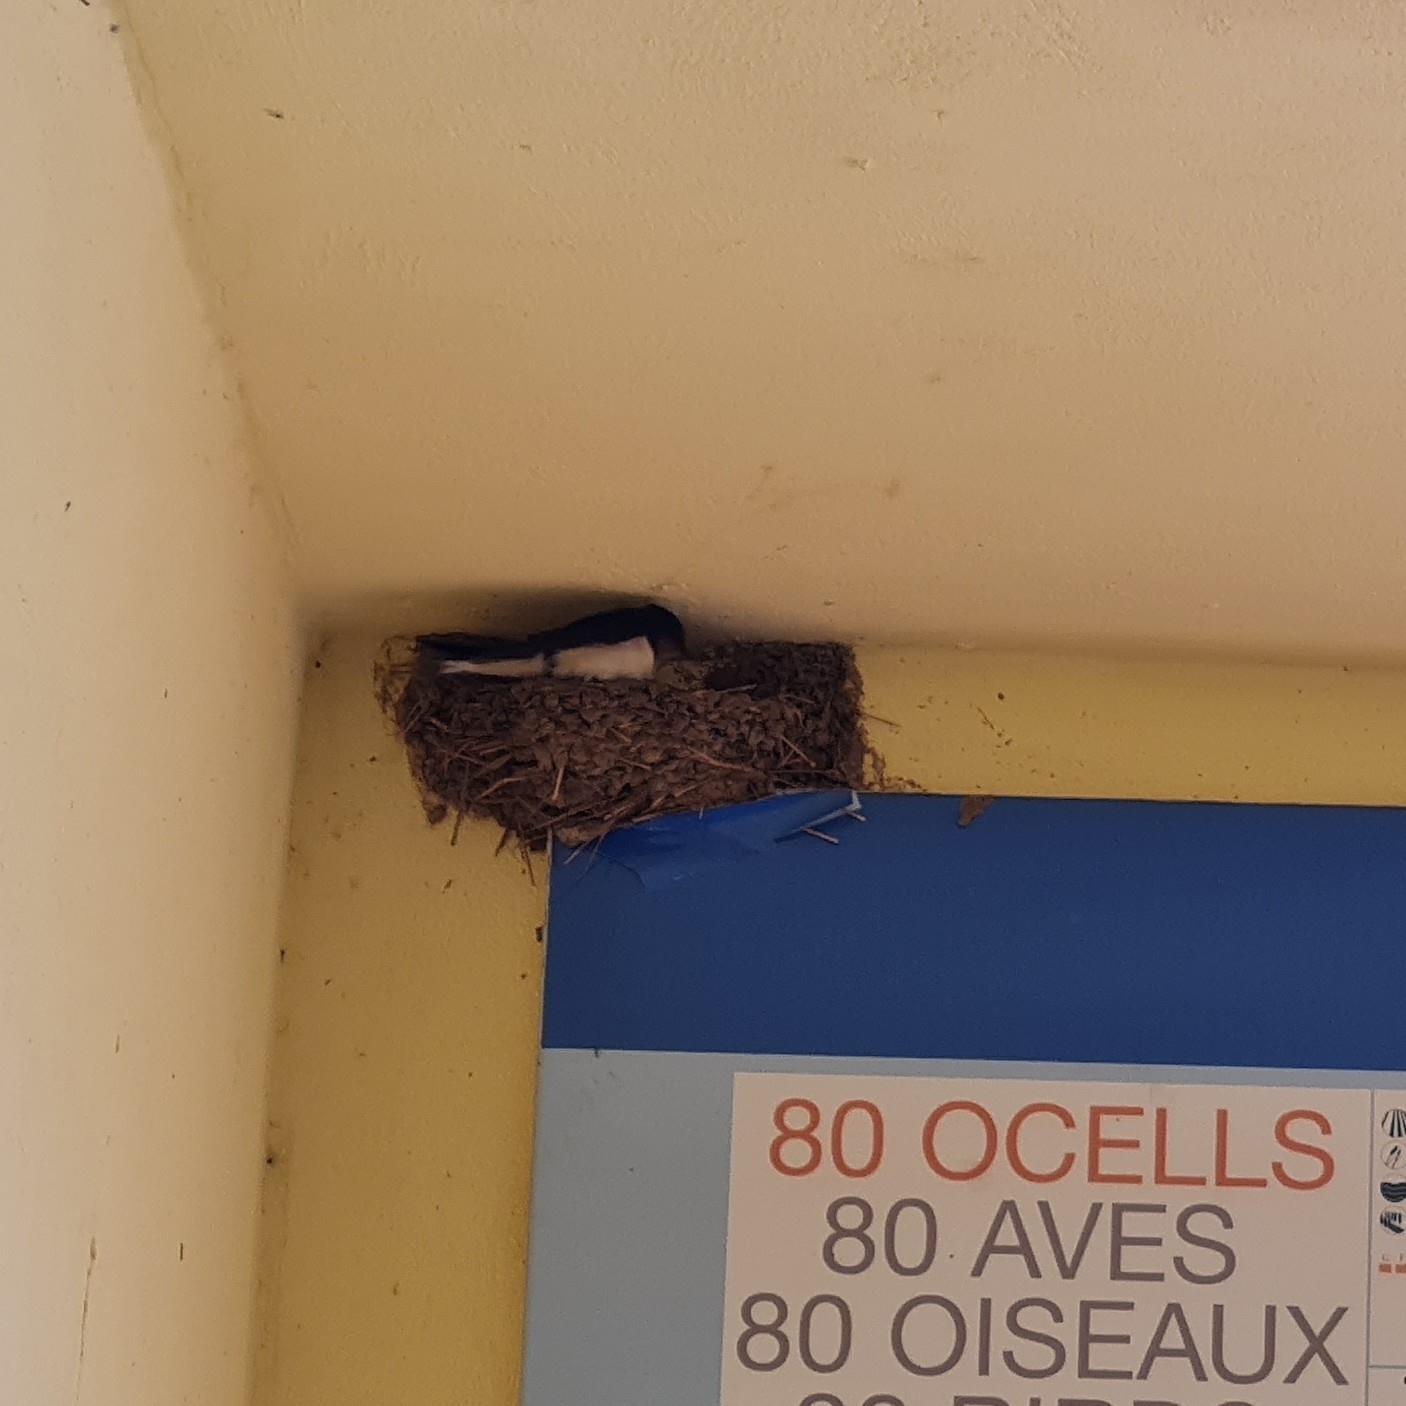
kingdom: Animalia
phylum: Chordata
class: Aves
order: Passeriformes
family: Hirundinidae
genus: Hirundo
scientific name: Hirundo rustica
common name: Barn swallow
